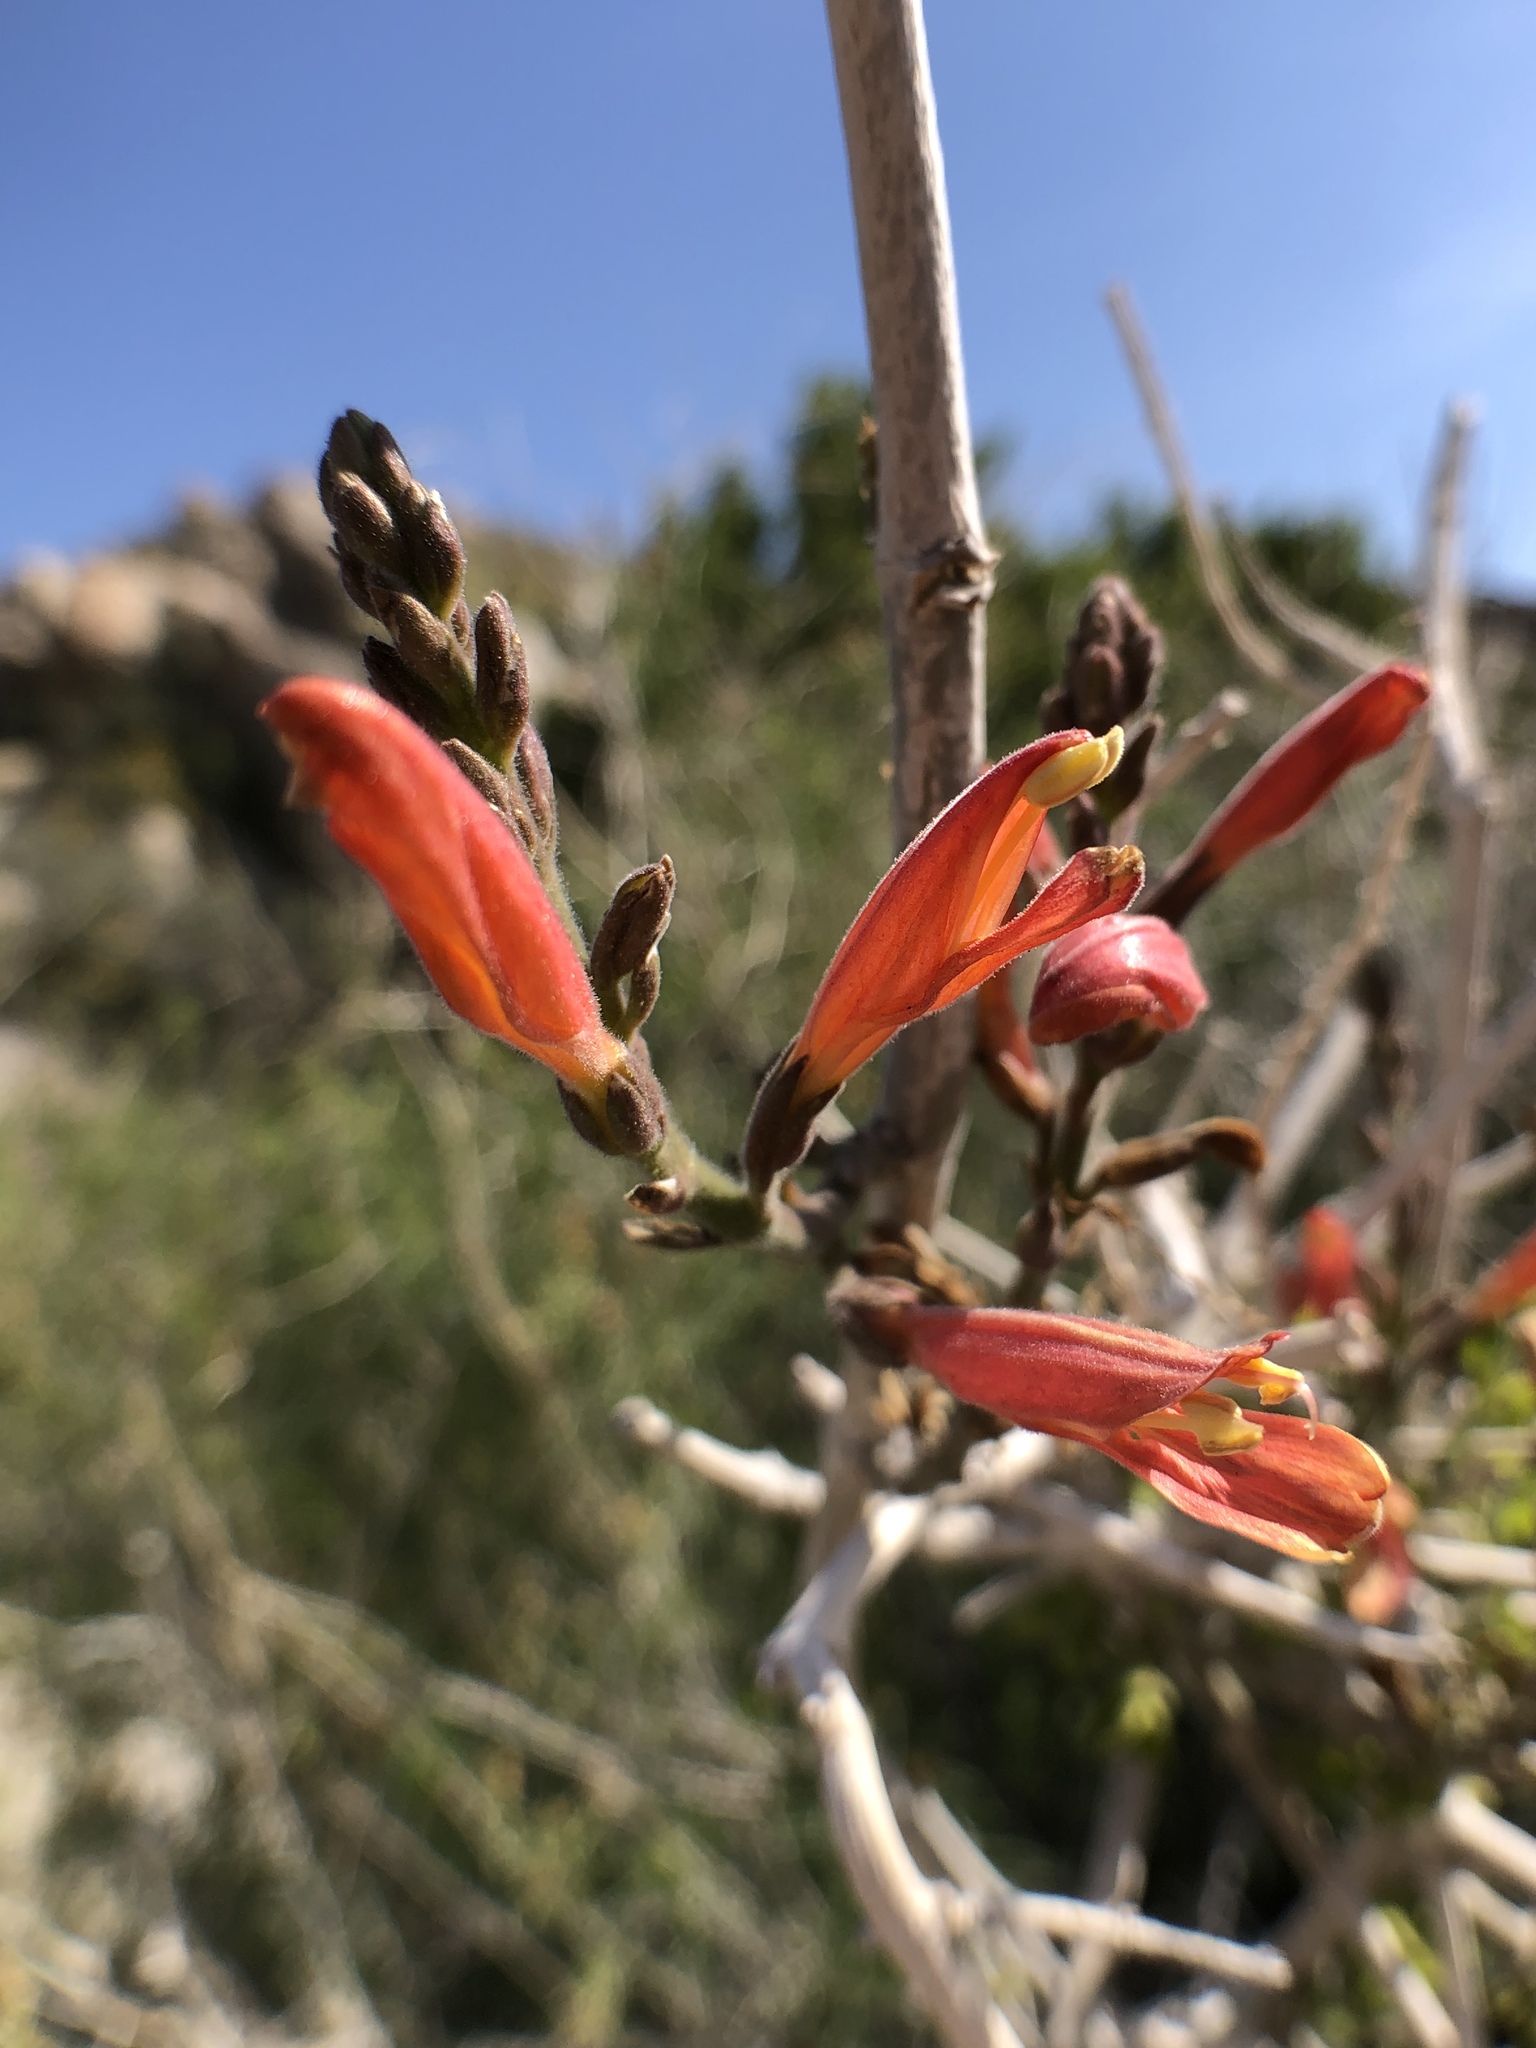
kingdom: Plantae
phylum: Tracheophyta
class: Magnoliopsida
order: Lamiales
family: Acanthaceae
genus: Justicia
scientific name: Justicia californica
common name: Chuparosa-honeysuckle
